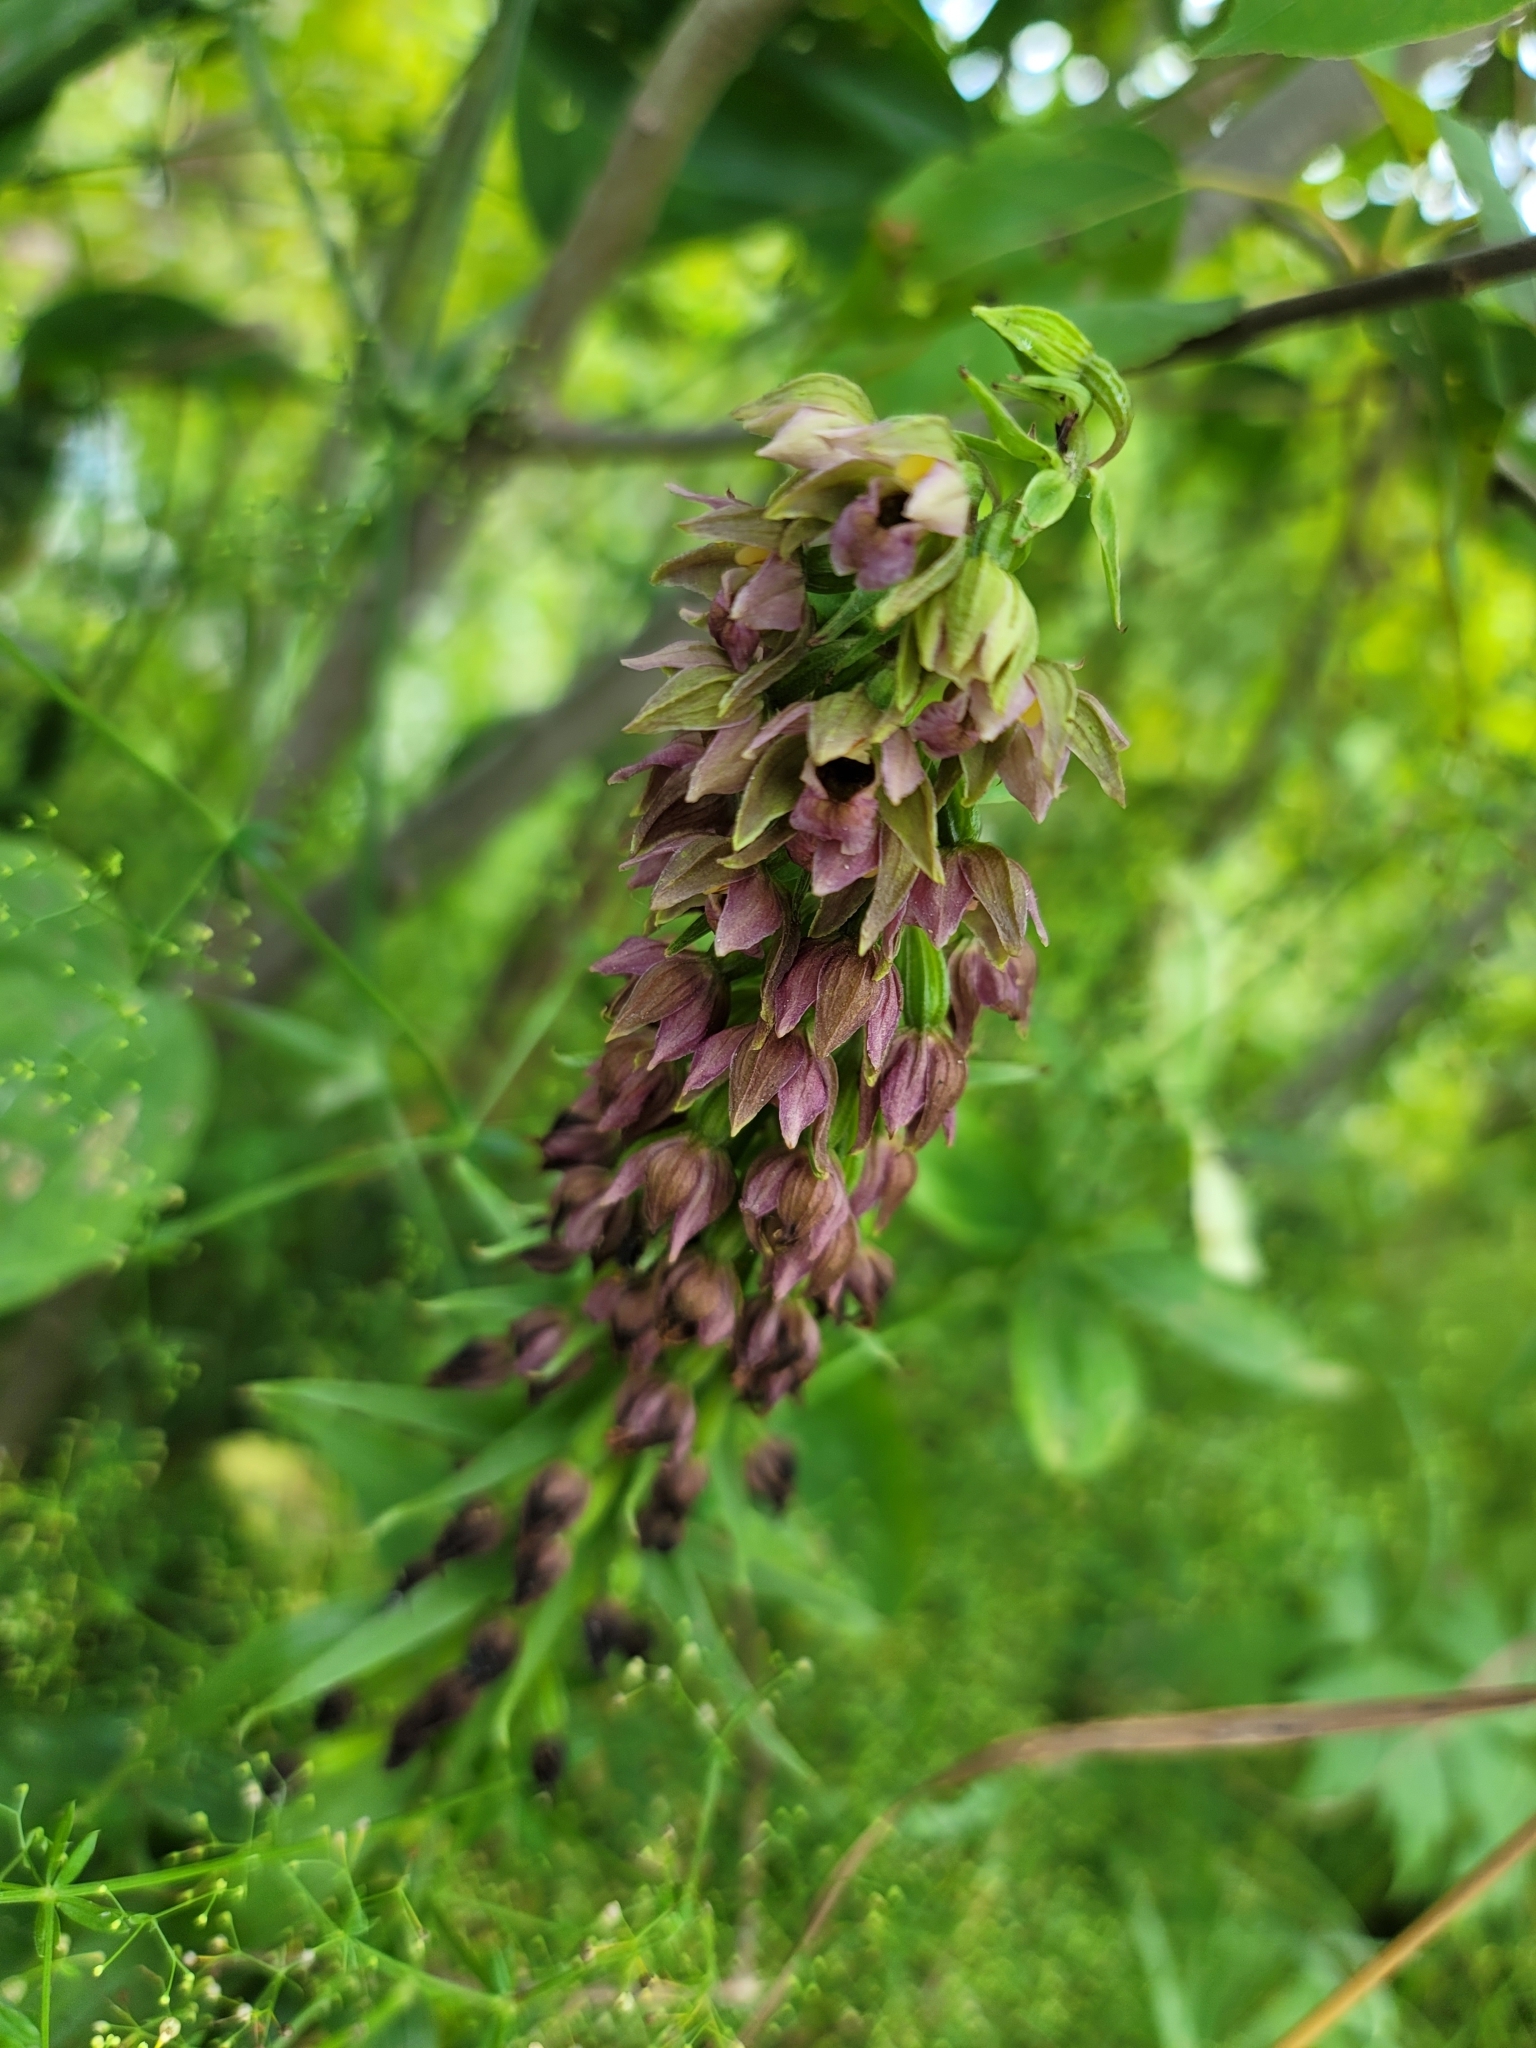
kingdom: Plantae
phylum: Tracheophyta
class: Liliopsida
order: Asparagales
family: Orchidaceae
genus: Epipactis
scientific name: Epipactis helleborine
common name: Broad-leaved helleborine
